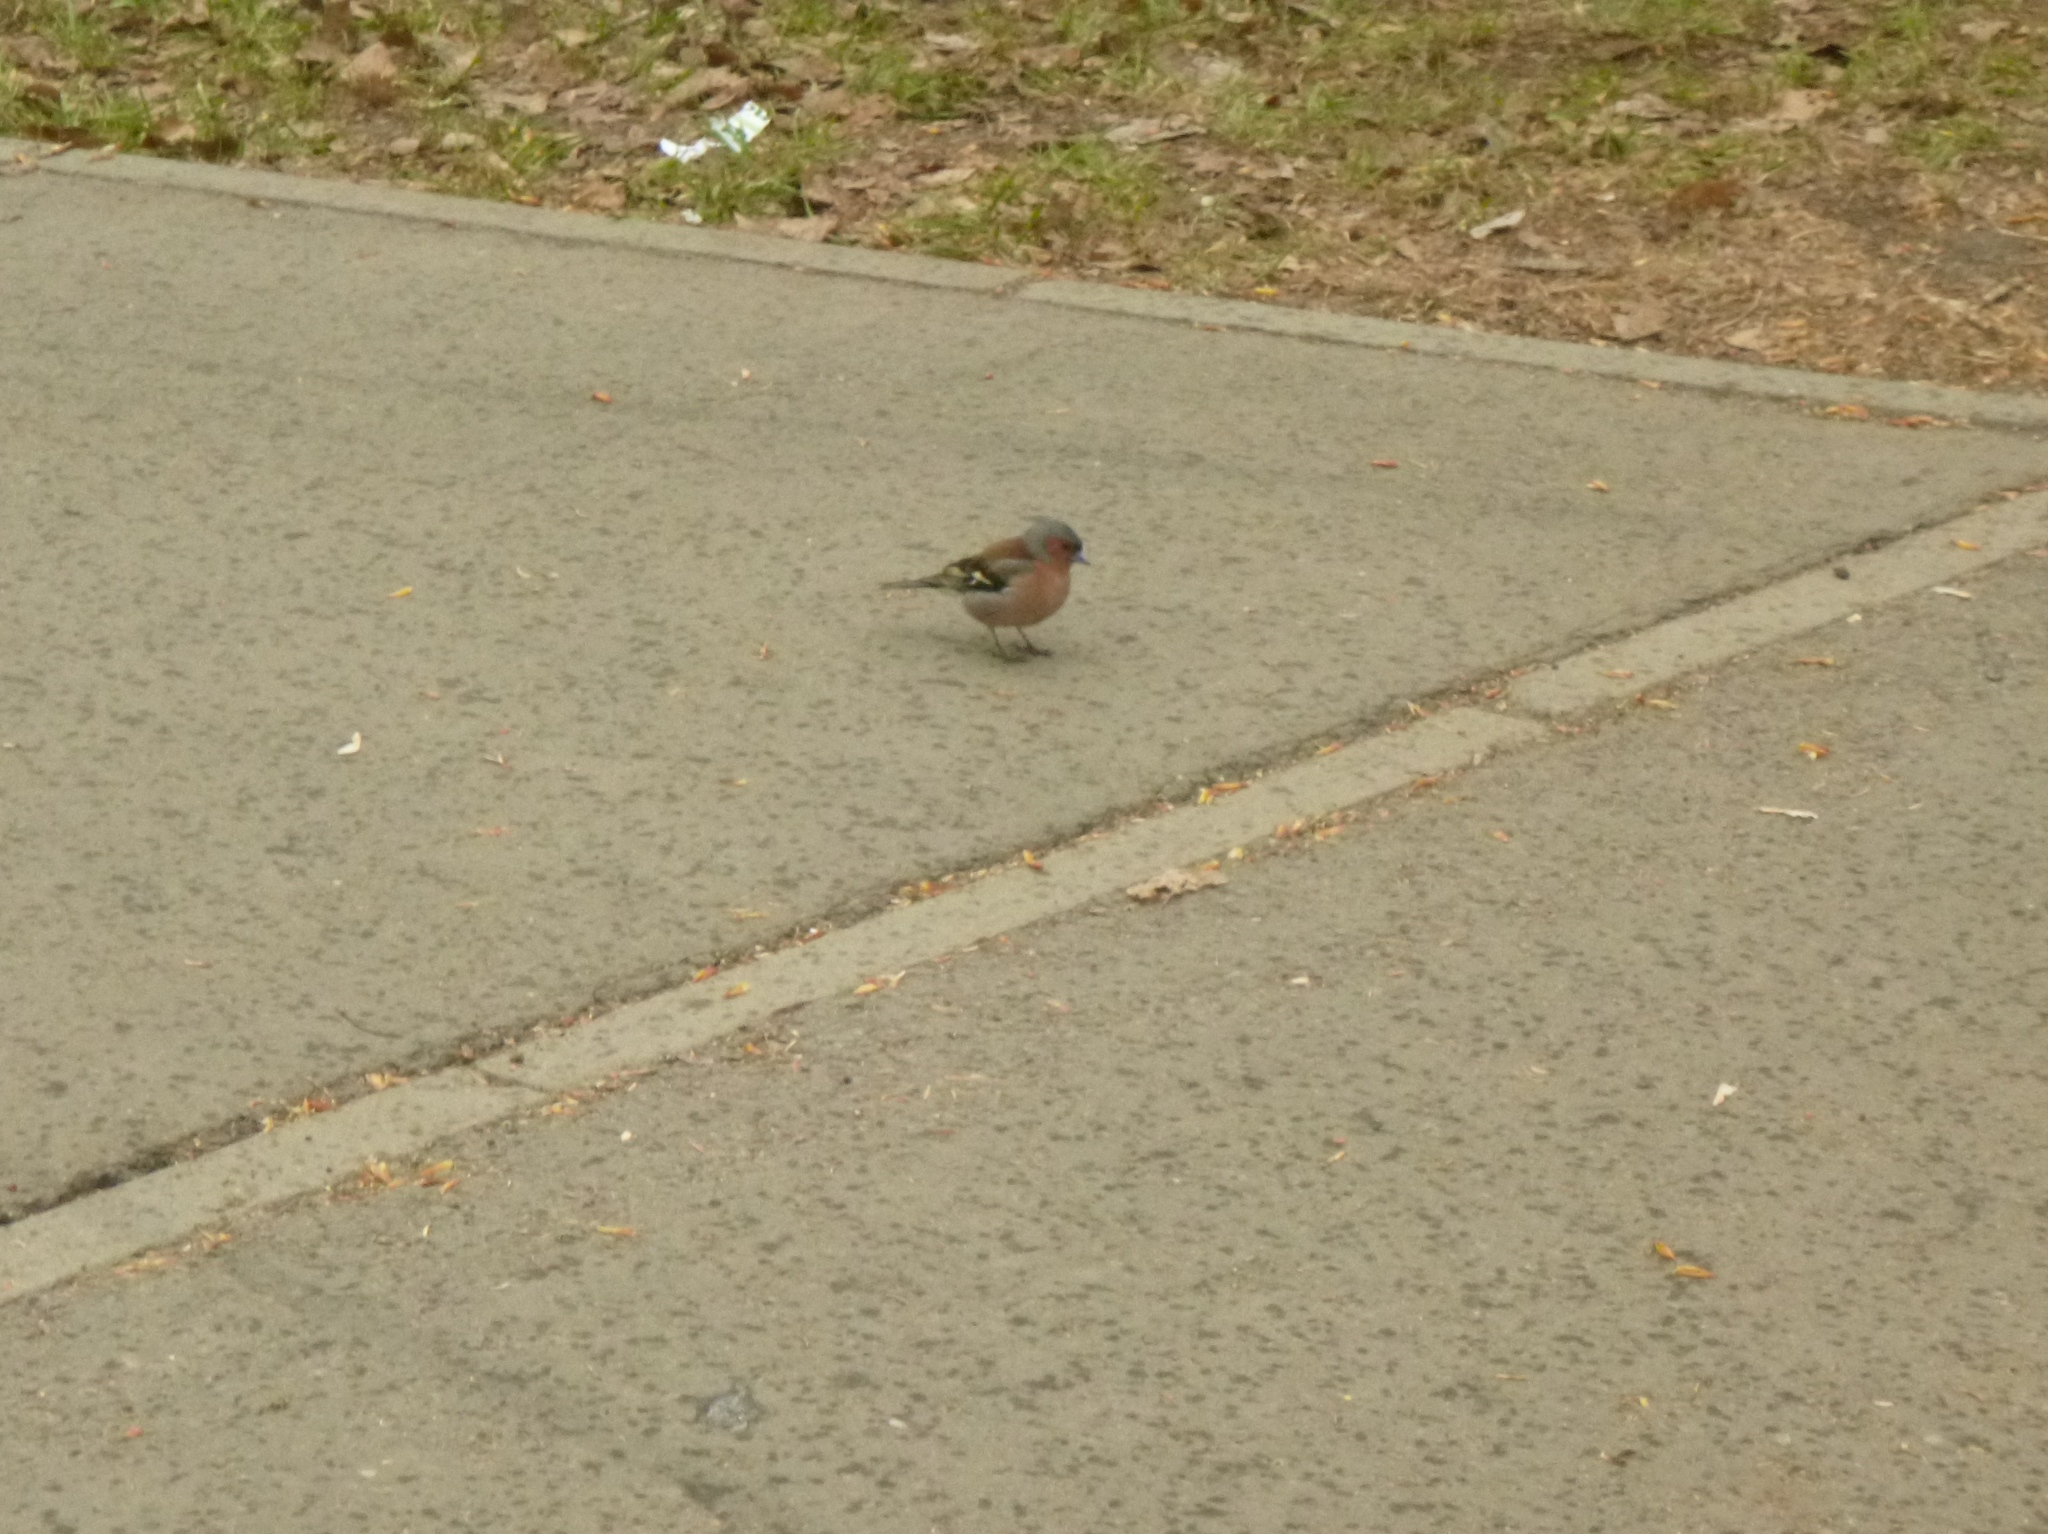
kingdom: Animalia
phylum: Chordata
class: Aves
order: Passeriformes
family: Fringillidae
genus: Fringilla
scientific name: Fringilla coelebs
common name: Common chaffinch
